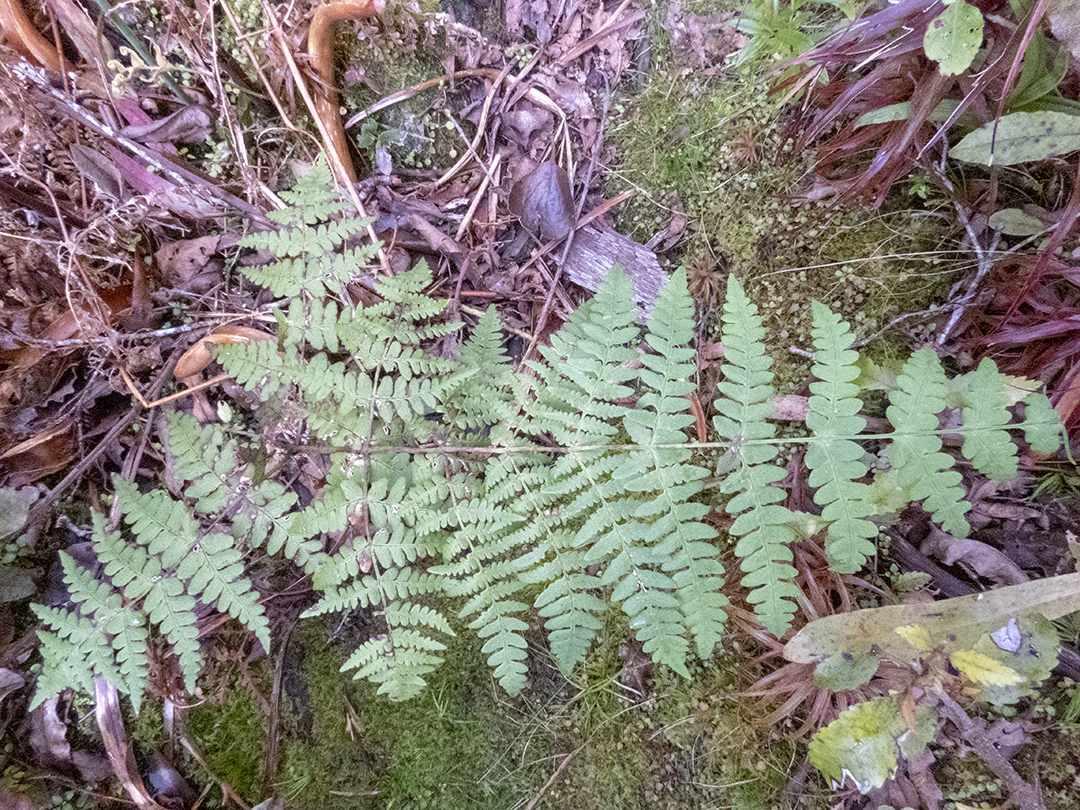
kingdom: Plantae
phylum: Tracheophyta
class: Polypodiopsida
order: Polypodiales
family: Dennstaedtiaceae
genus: Histiopteris
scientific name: Histiopteris incisa
